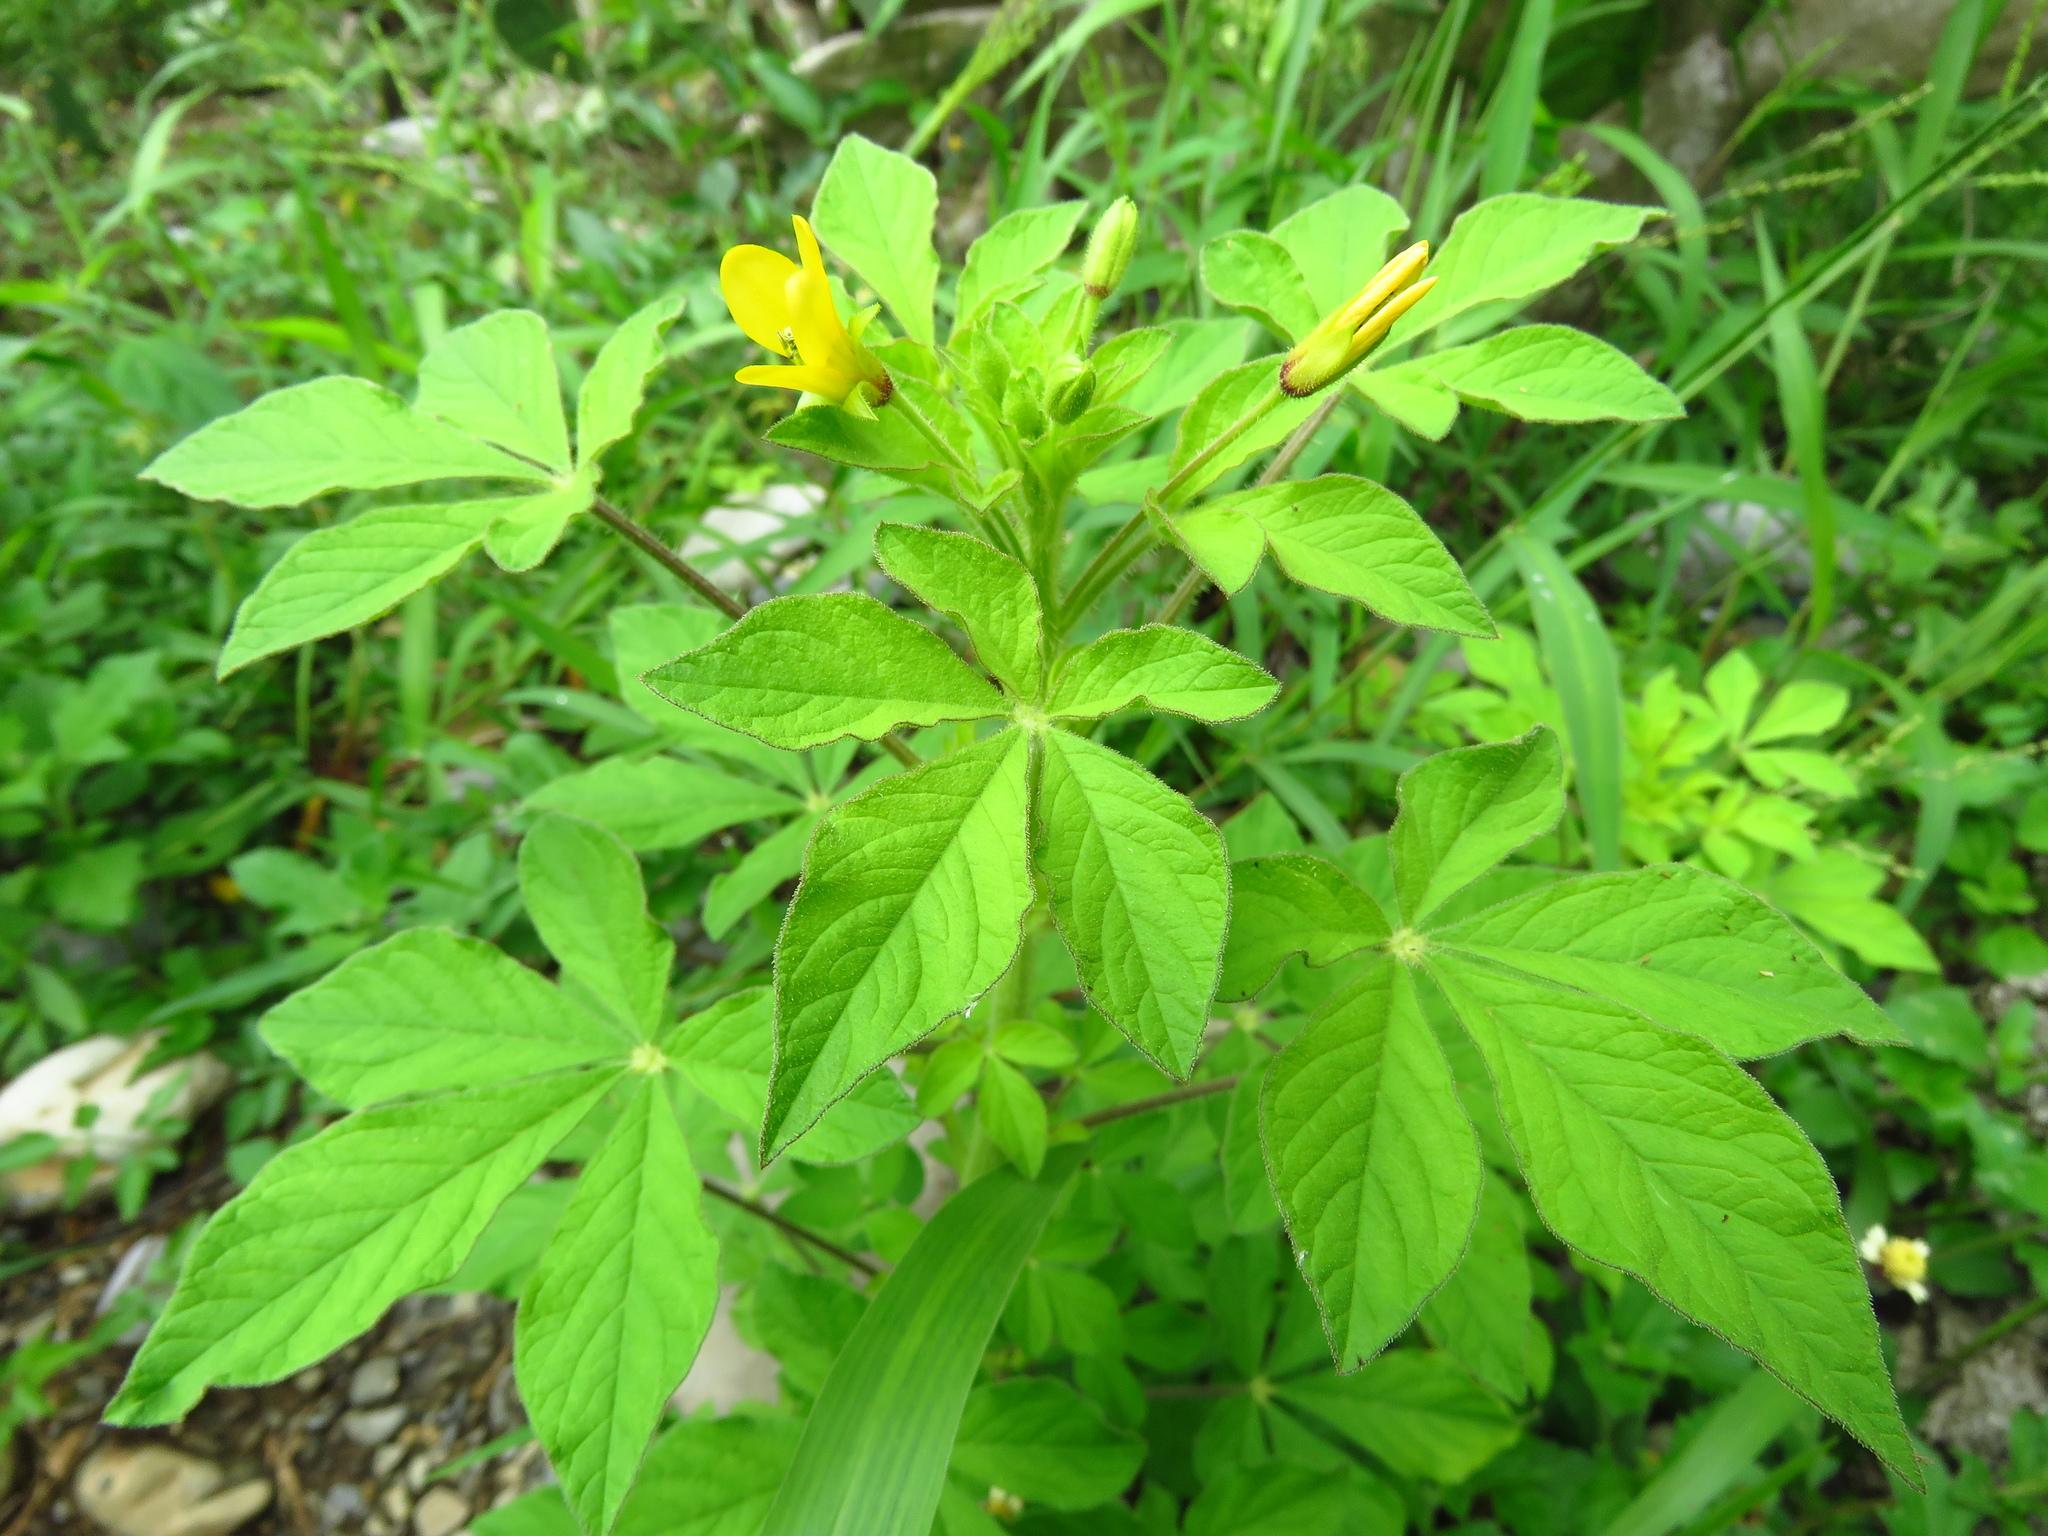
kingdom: Plantae
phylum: Tracheophyta
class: Magnoliopsida
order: Brassicales
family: Cleomaceae
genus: Arivela
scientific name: Arivela viscosa
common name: Asian spiderflower
